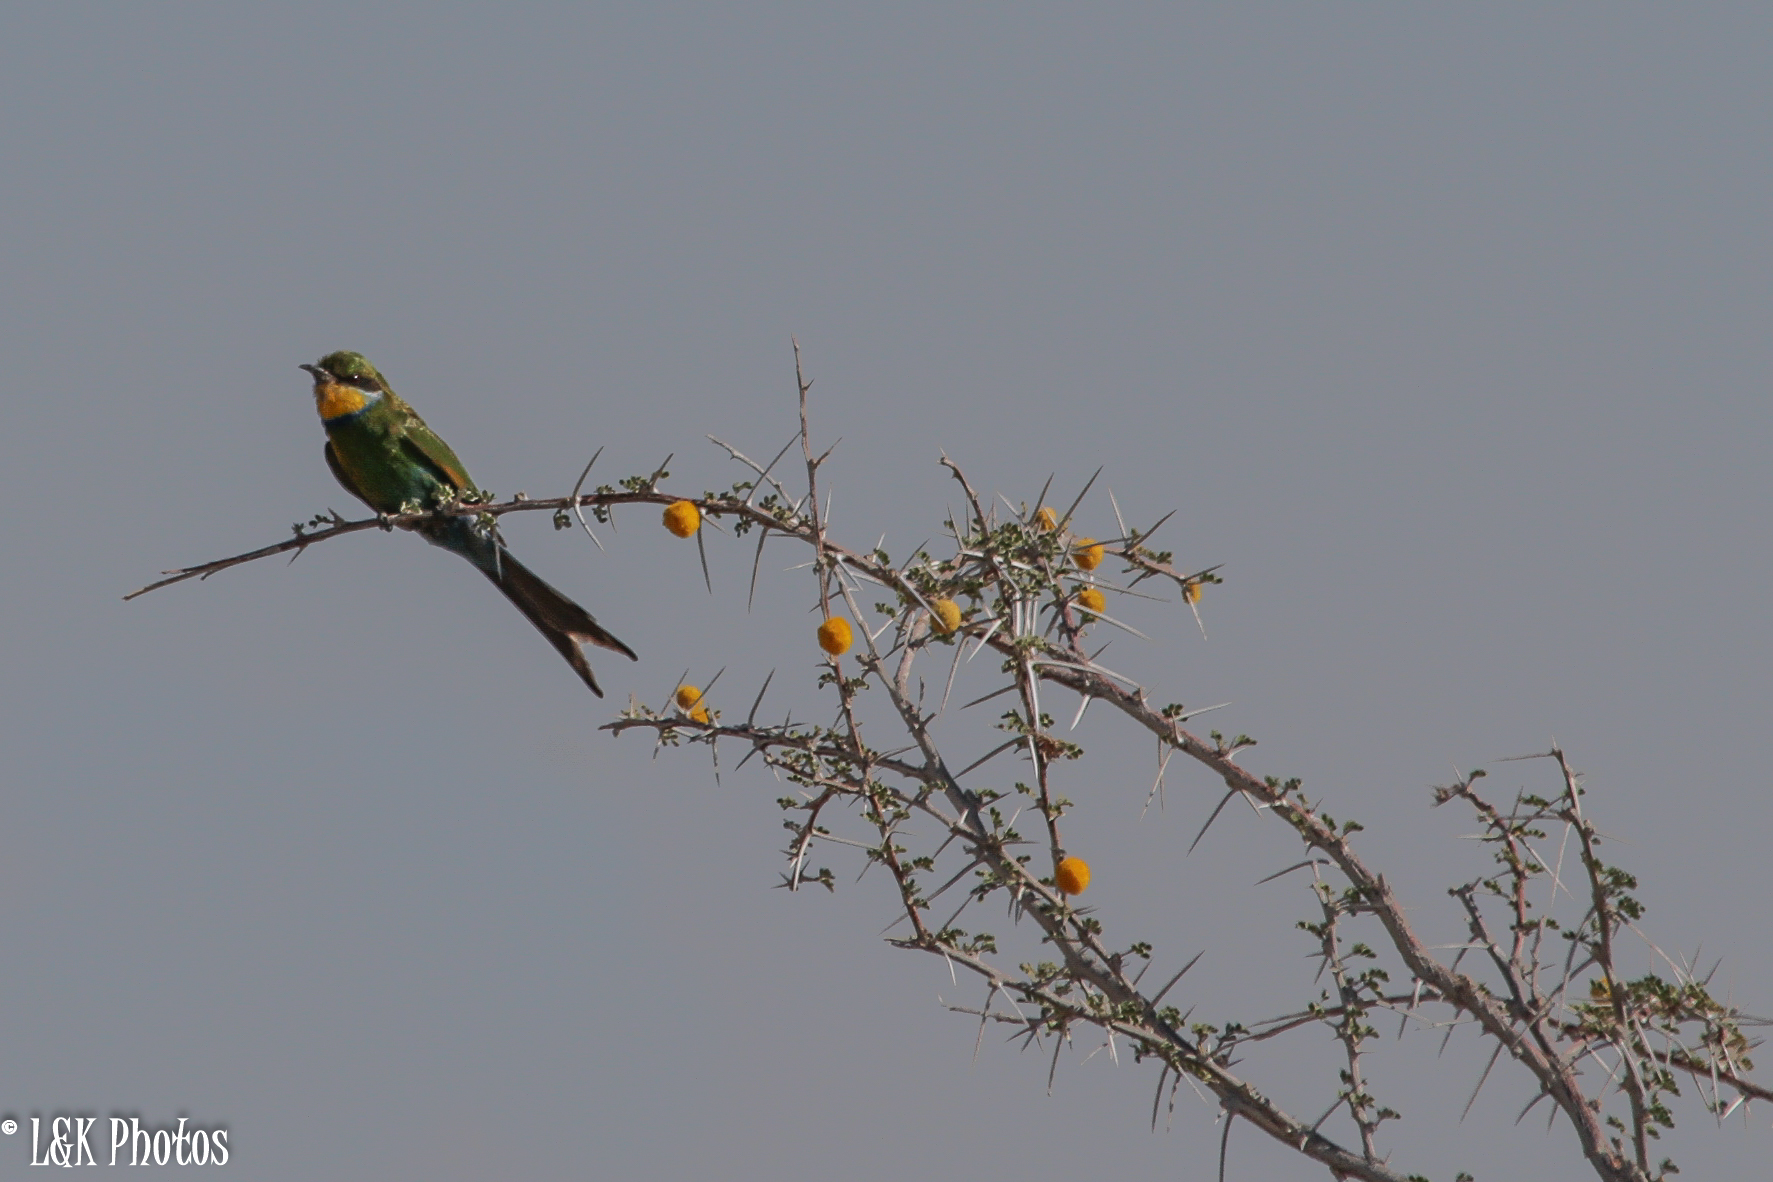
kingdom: Animalia
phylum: Chordata
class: Aves
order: Coraciiformes
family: Meropidae
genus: Merops
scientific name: Merops hirundineus
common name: Swallow-tailed bee-eater
